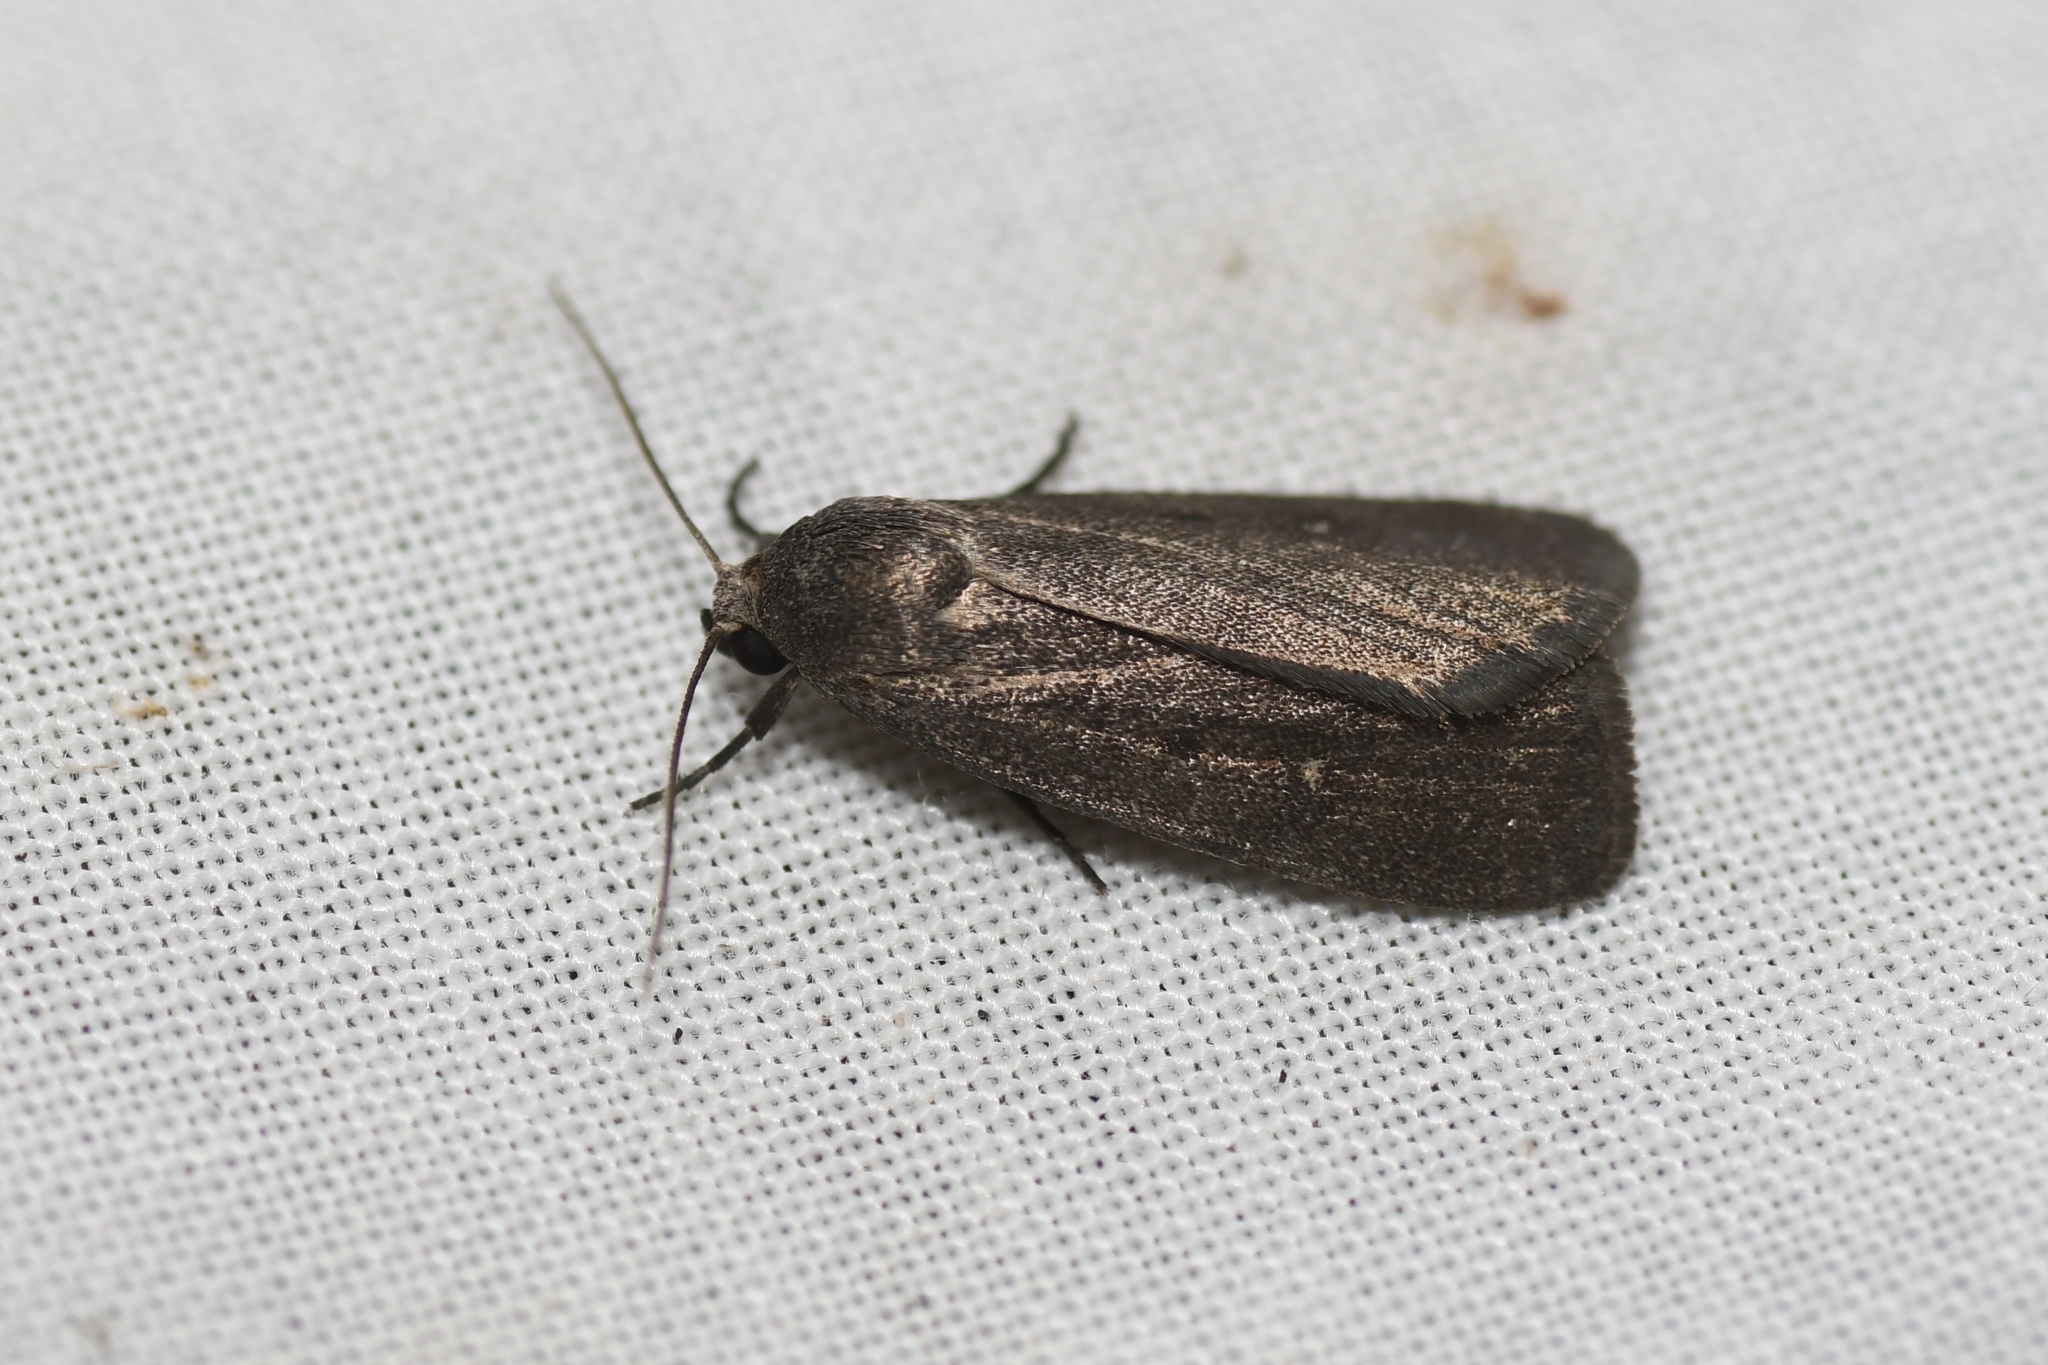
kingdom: Animalia
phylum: Arthropoda
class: Insecta
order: Lepidoptera
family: Noctuidae
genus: Proxenus
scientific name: Proxenus miranda
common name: Miranda moth
